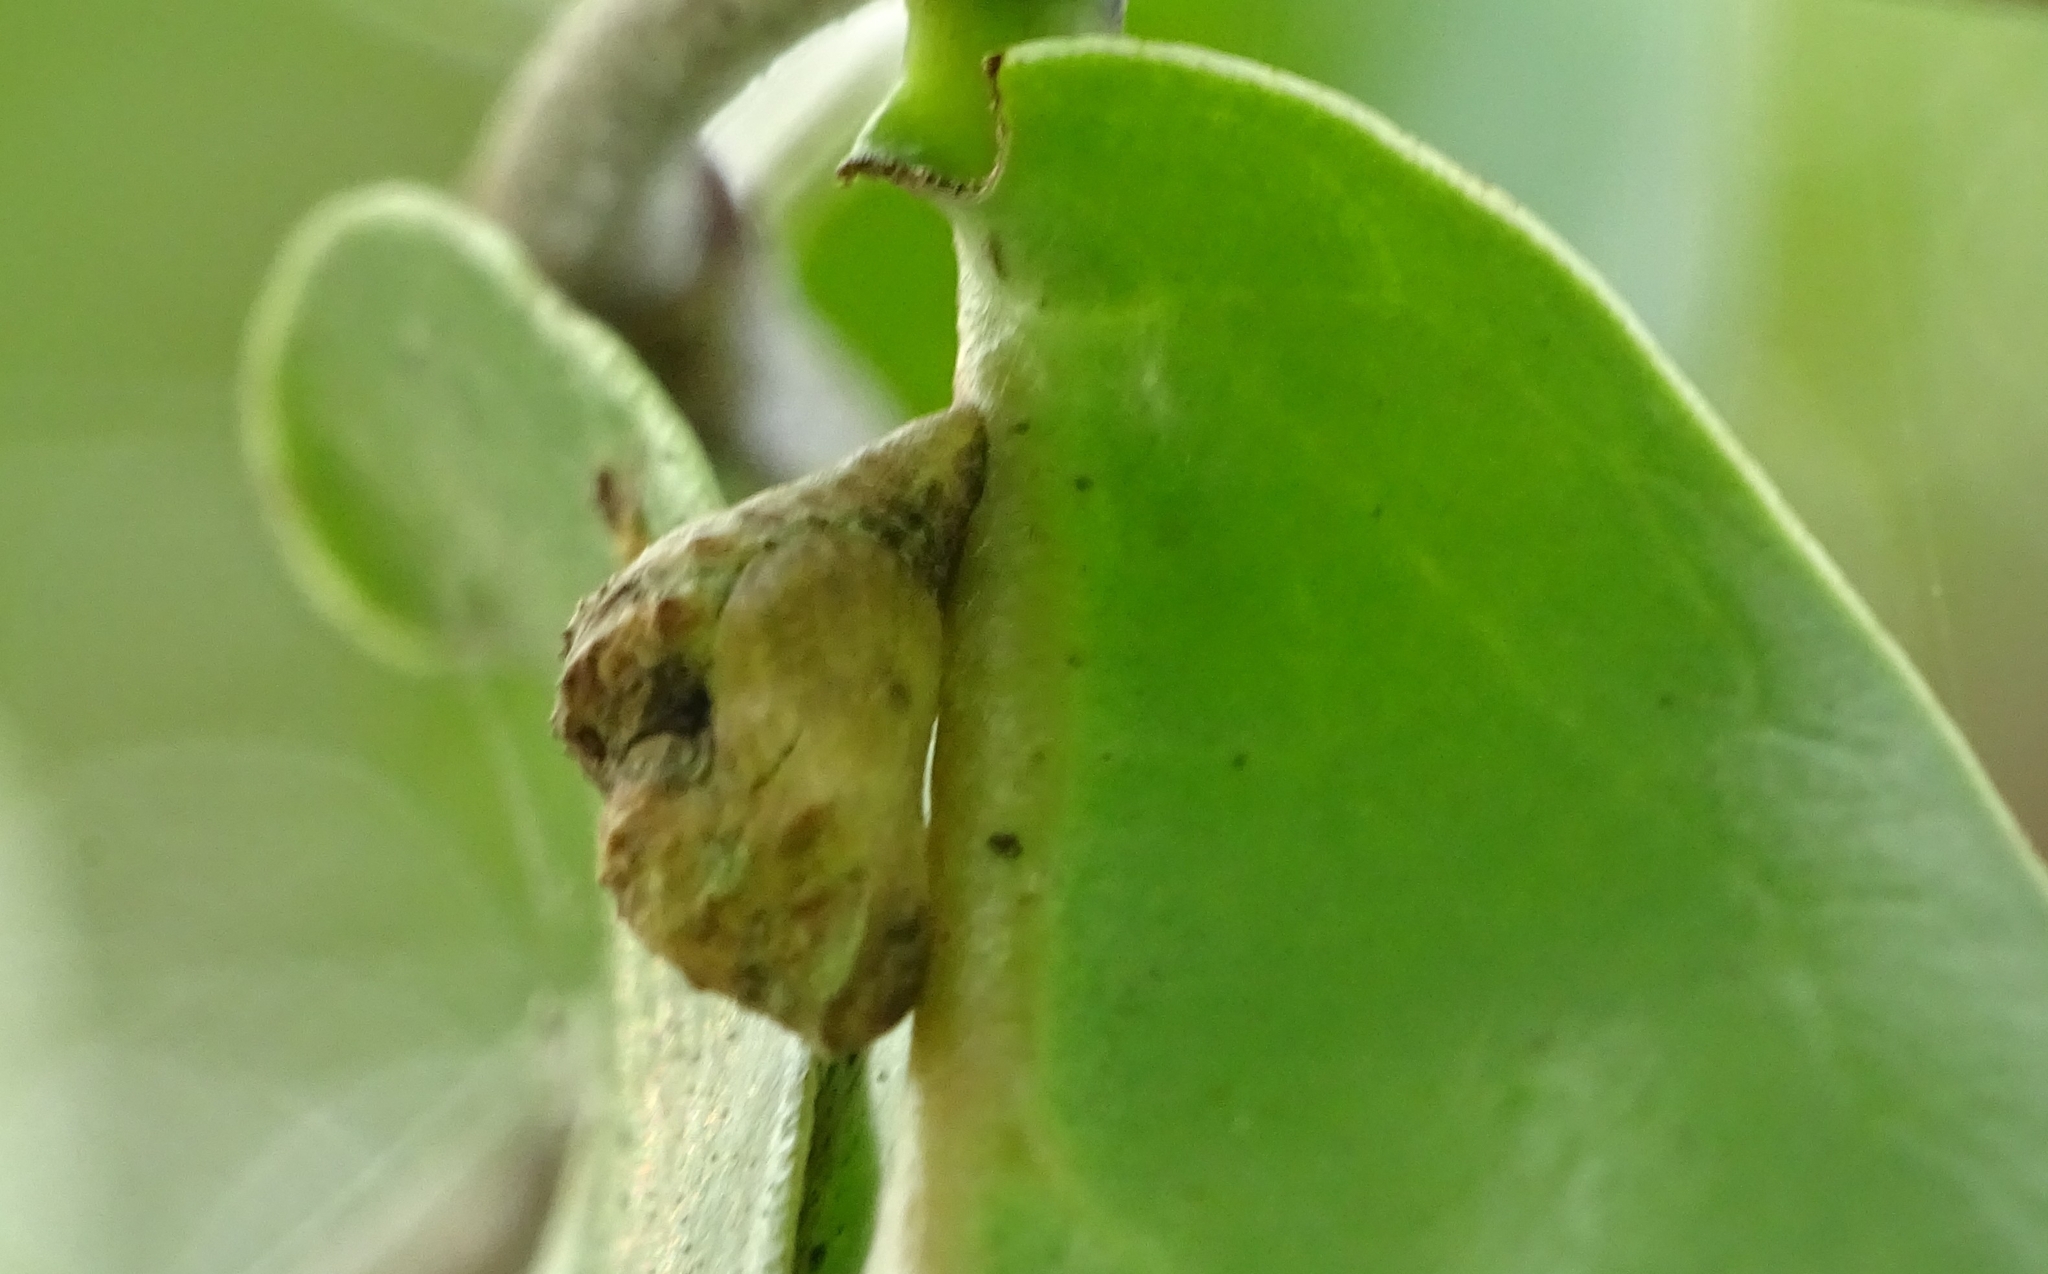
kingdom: Animalia
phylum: Arthropoda
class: Insecta
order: Lepidoptera
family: Lycaenidae
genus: Tajuria
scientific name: Tajuria cippus
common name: Peacock royal
